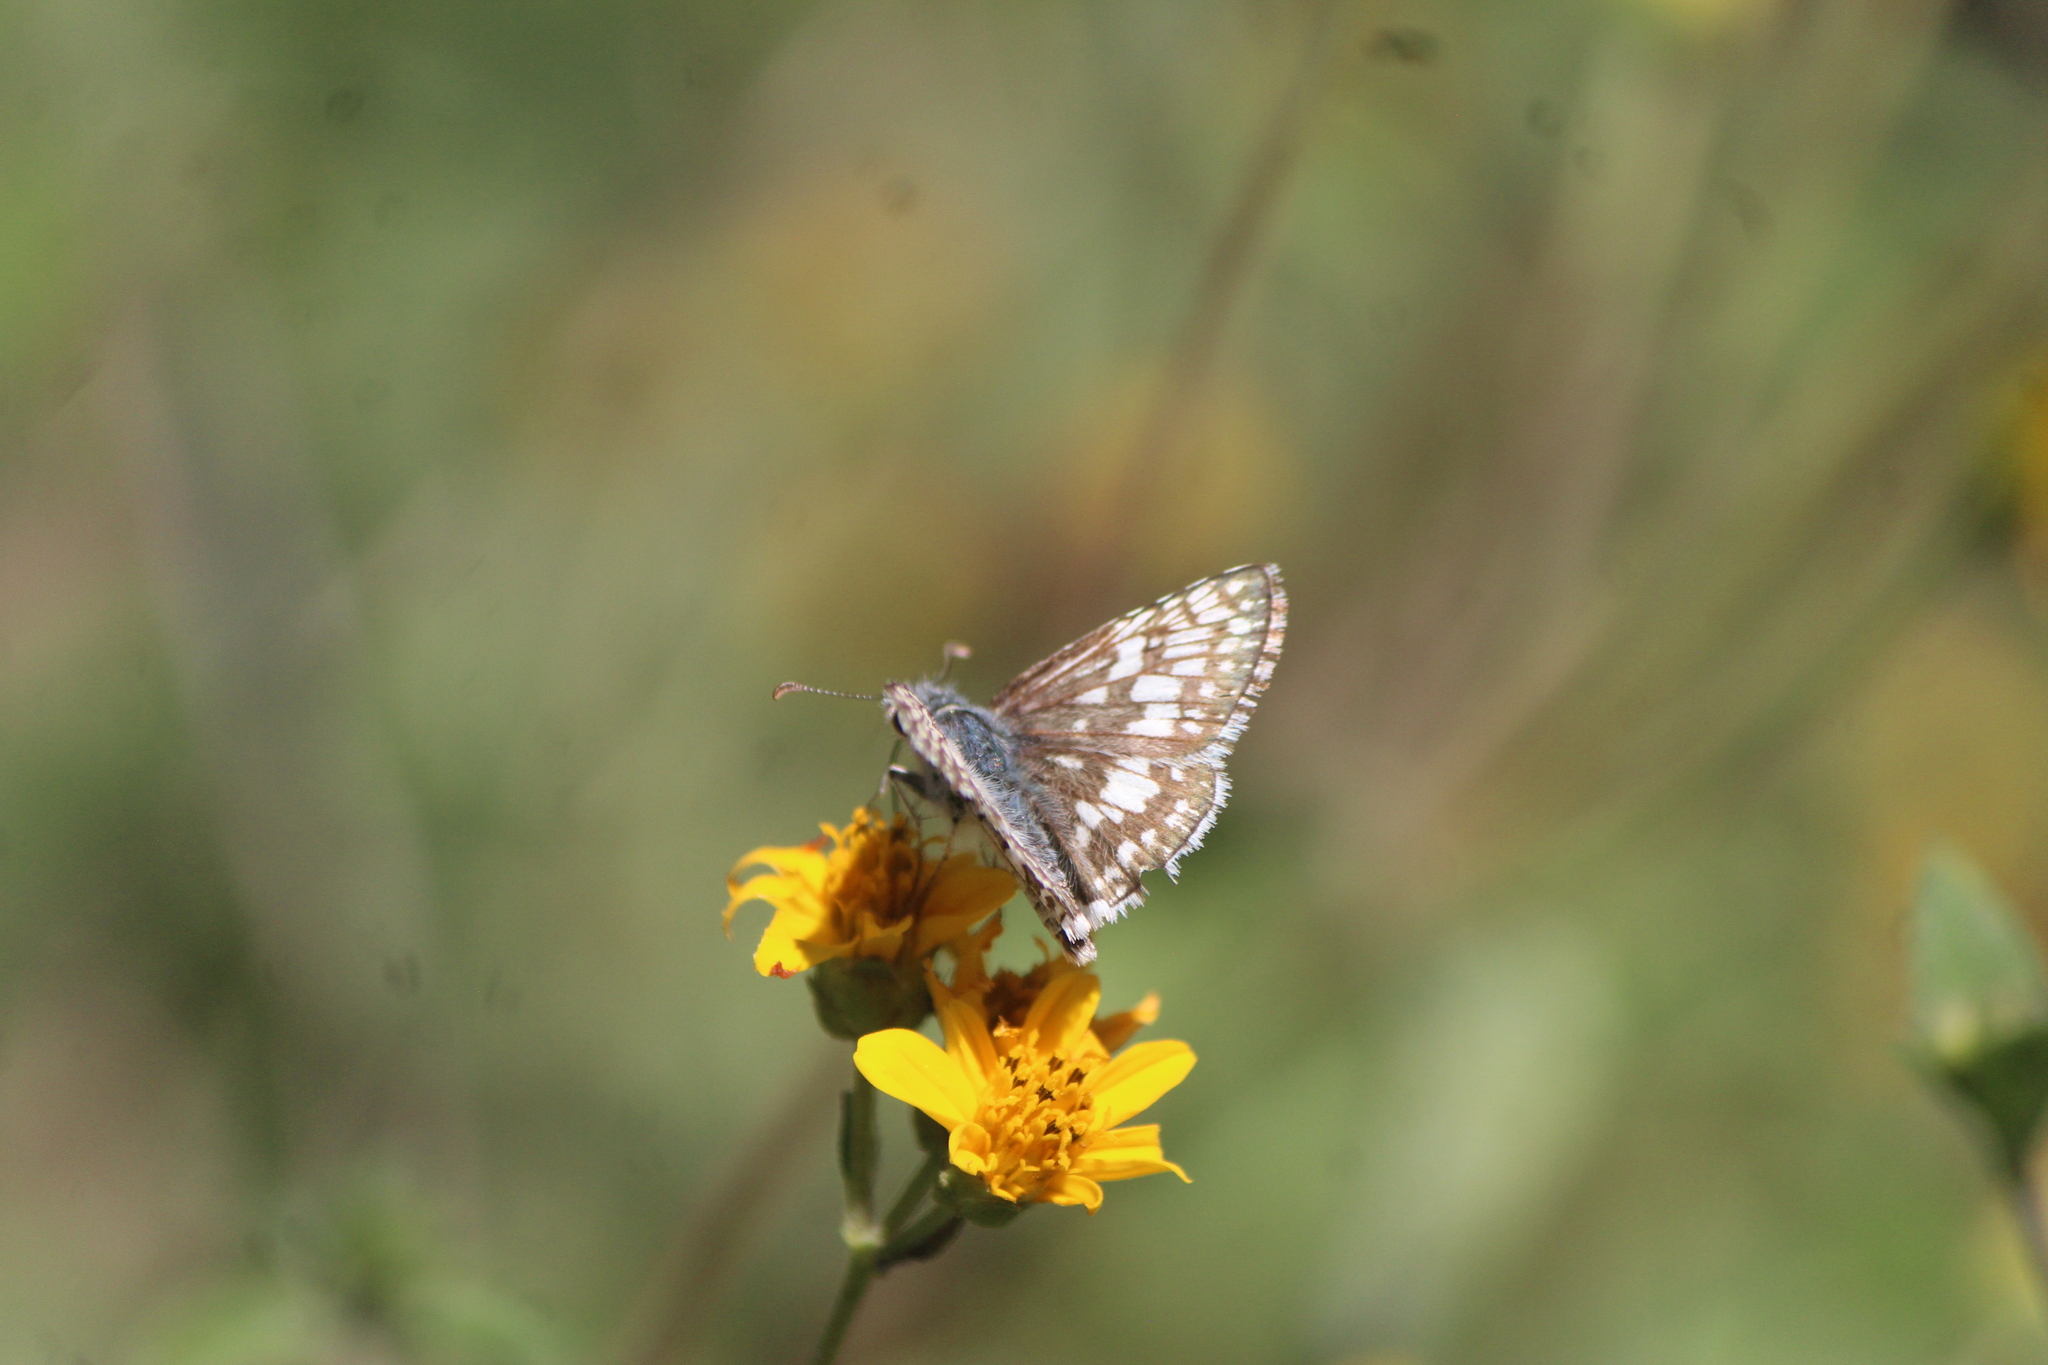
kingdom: Animalia
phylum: Arthropoda
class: Insecta
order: Lepidoptera
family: Hesperiidae
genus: Burnsius
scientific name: Burnsius albezens
